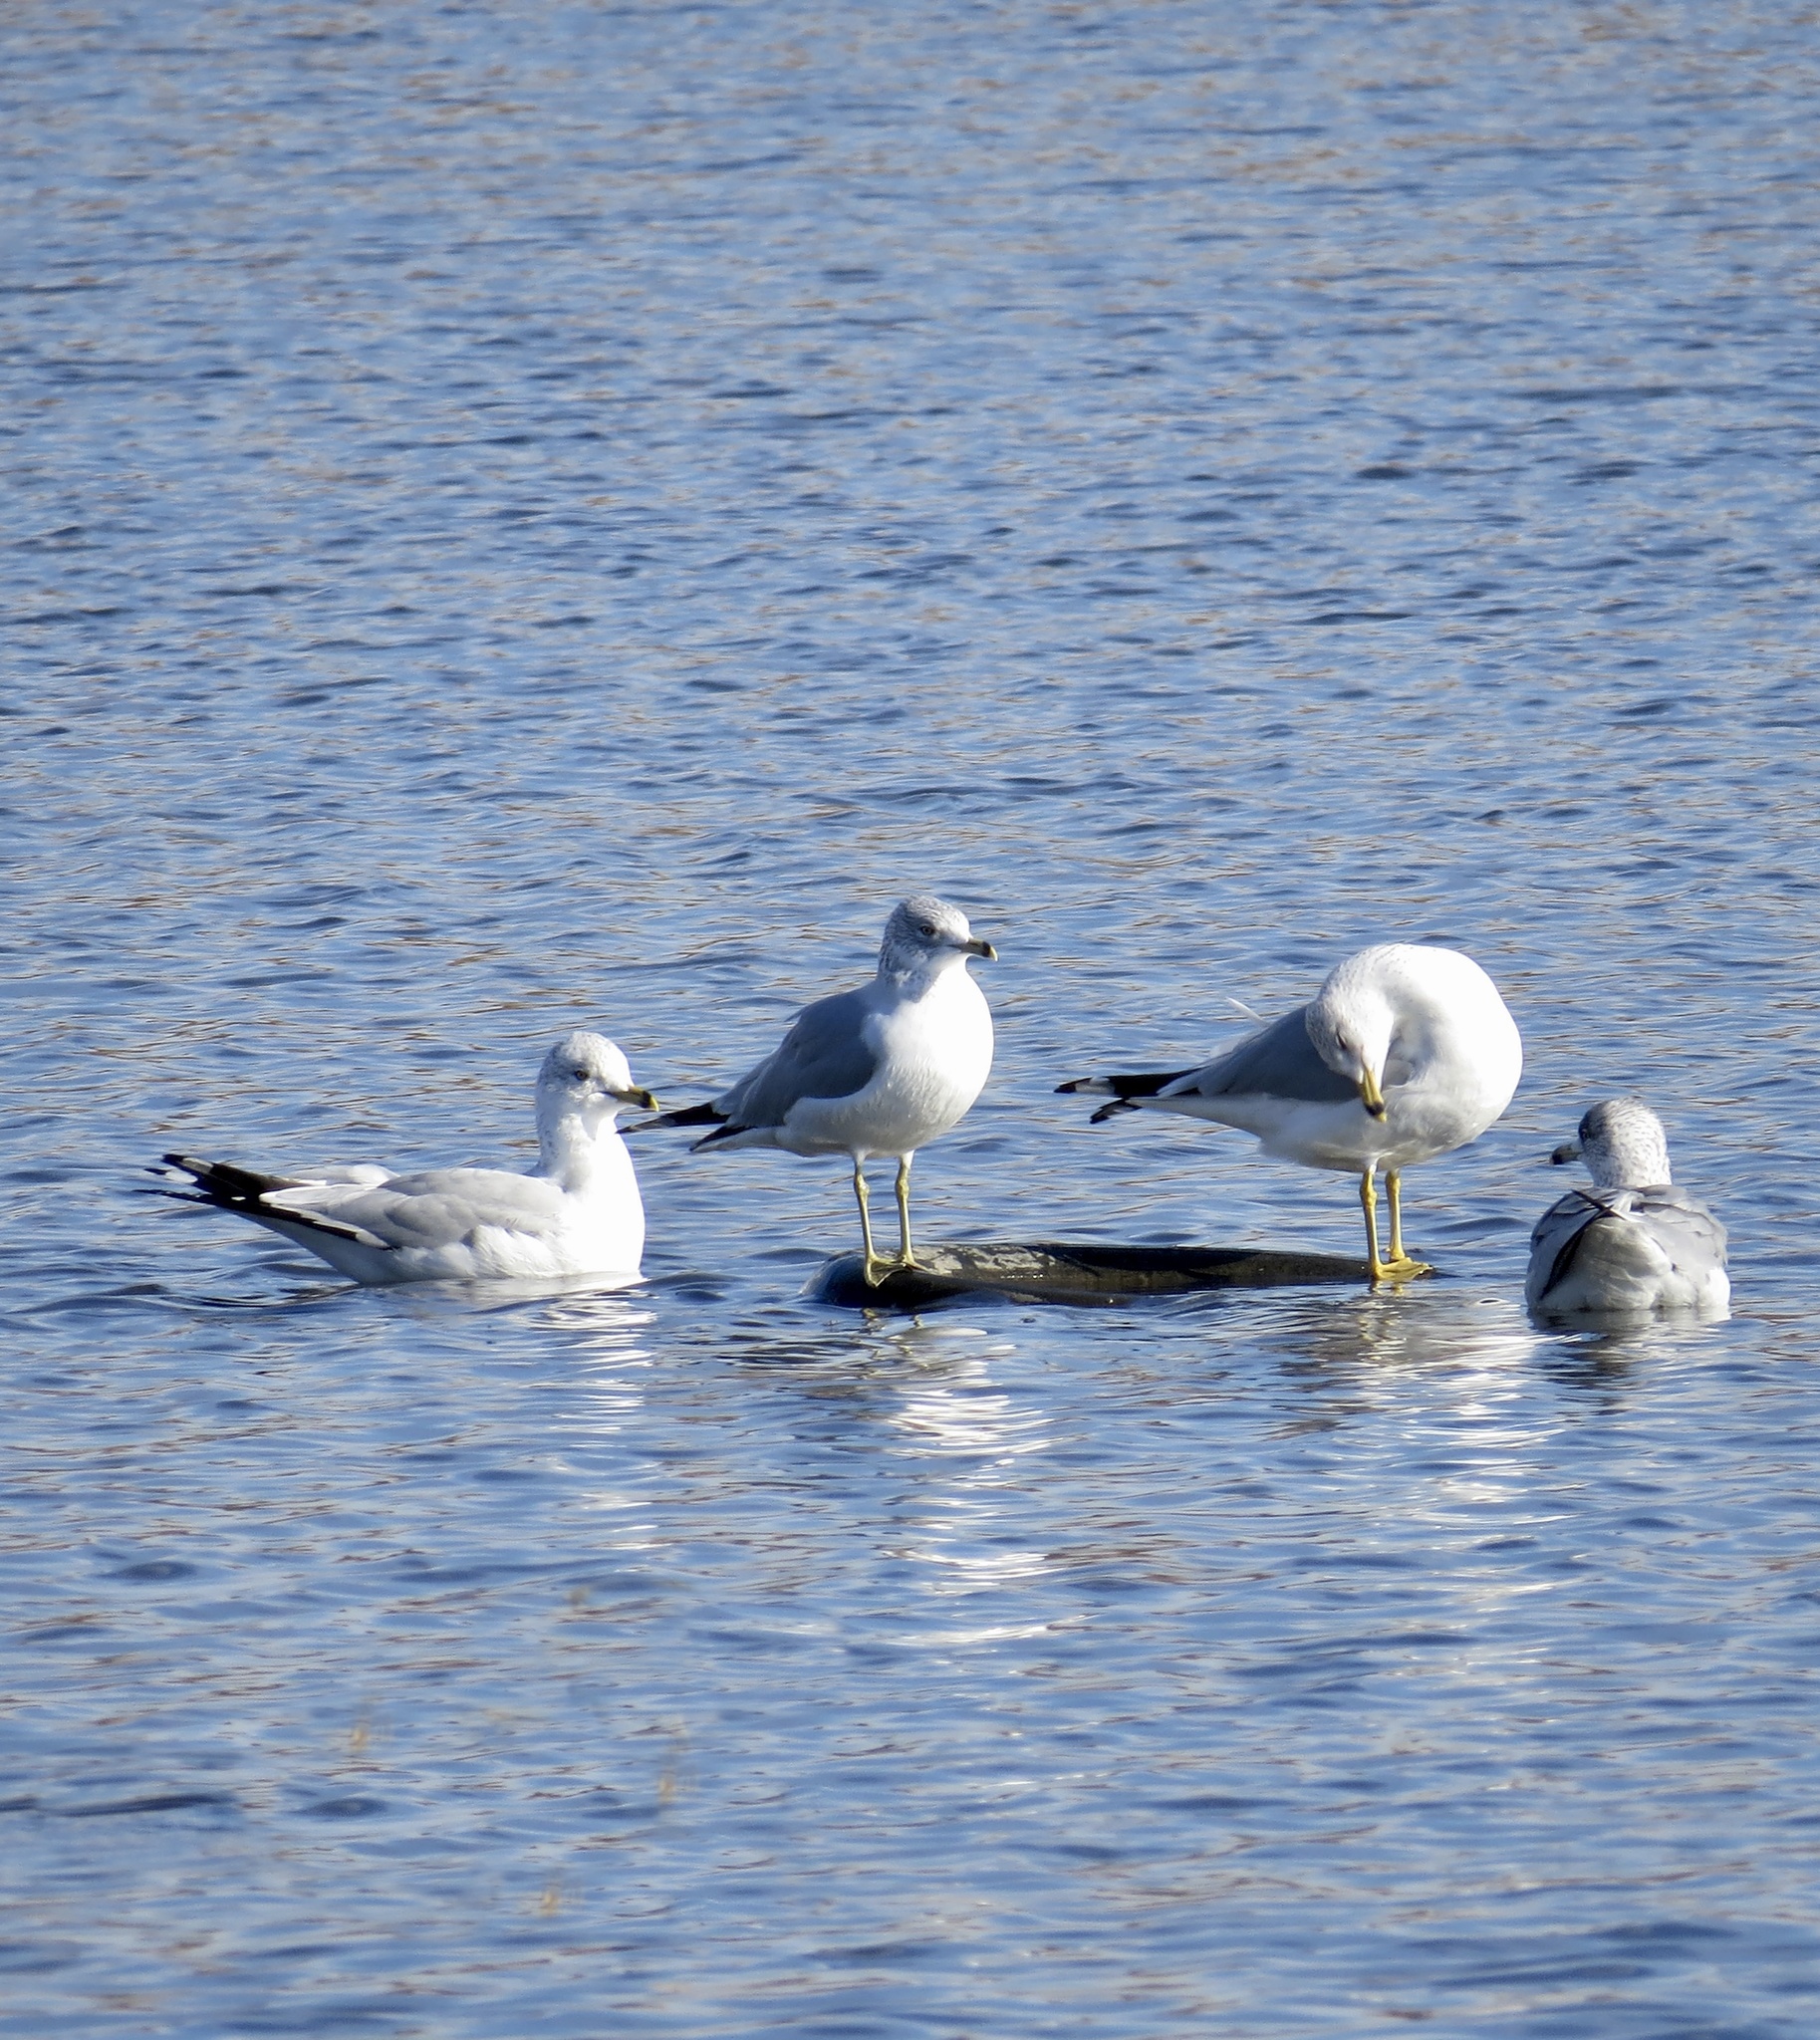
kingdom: Animalia
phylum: Chordata
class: Aves
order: Charadriiformes
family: Laridae
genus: Larus
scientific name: Larus delawarensis
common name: Ring-billed gull
